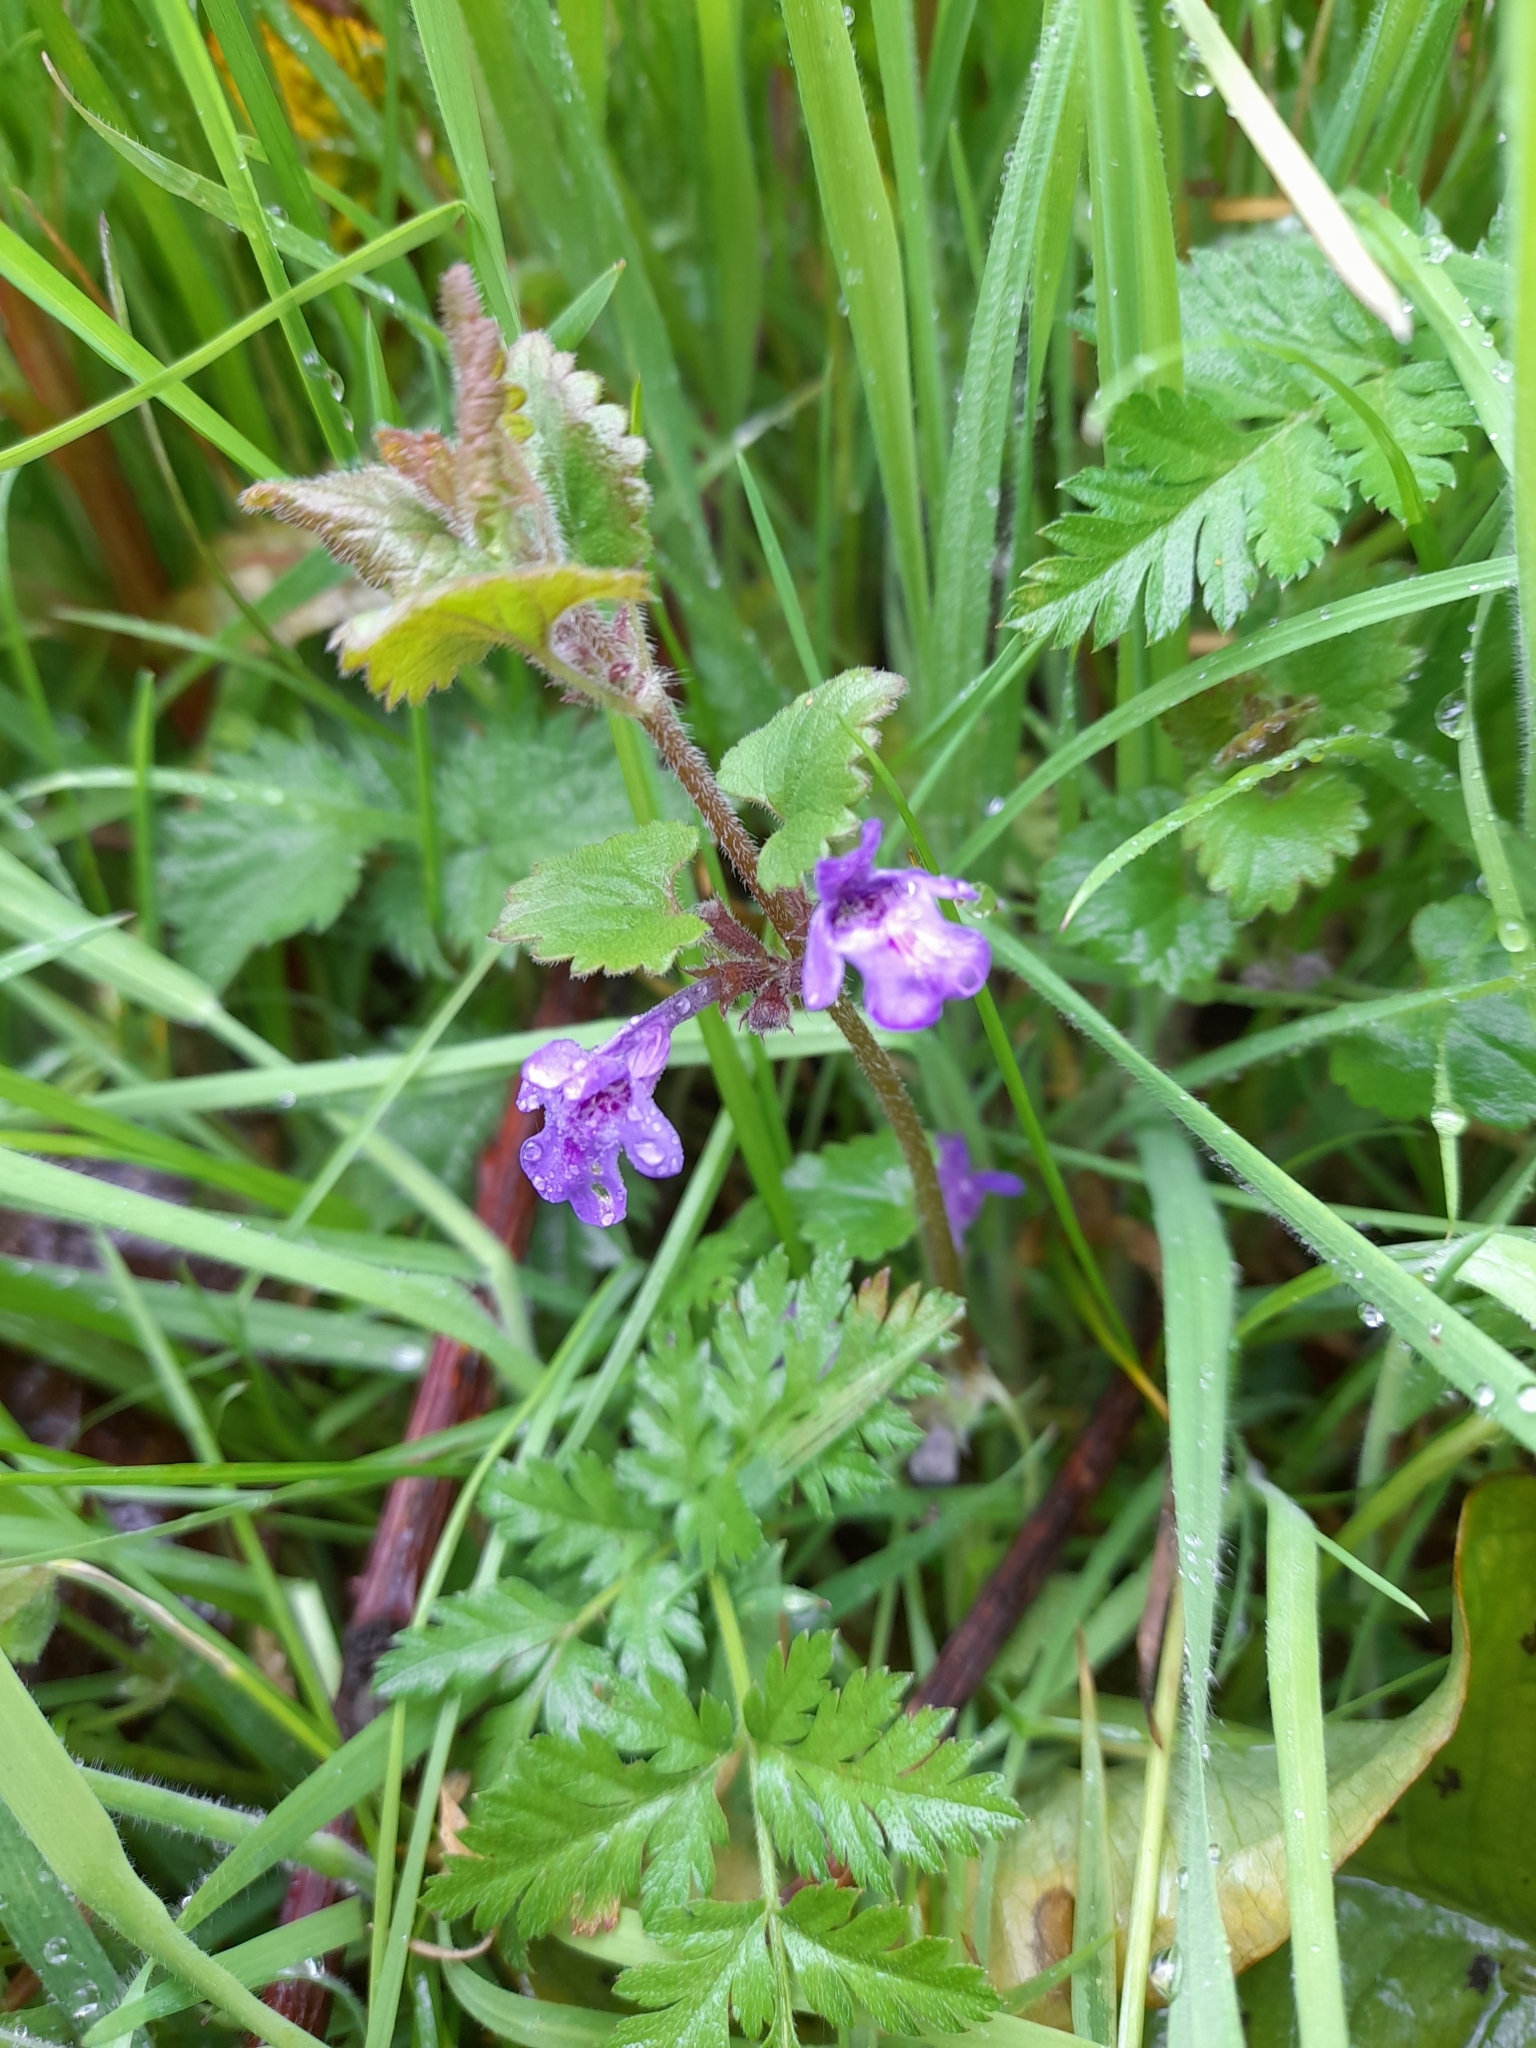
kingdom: Plantae
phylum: Tracheophyta
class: Magnoliopsida
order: Lamiales
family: Lamiaceae
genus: Glechoma
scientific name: Glechoma hederacea
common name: Ground ivy
